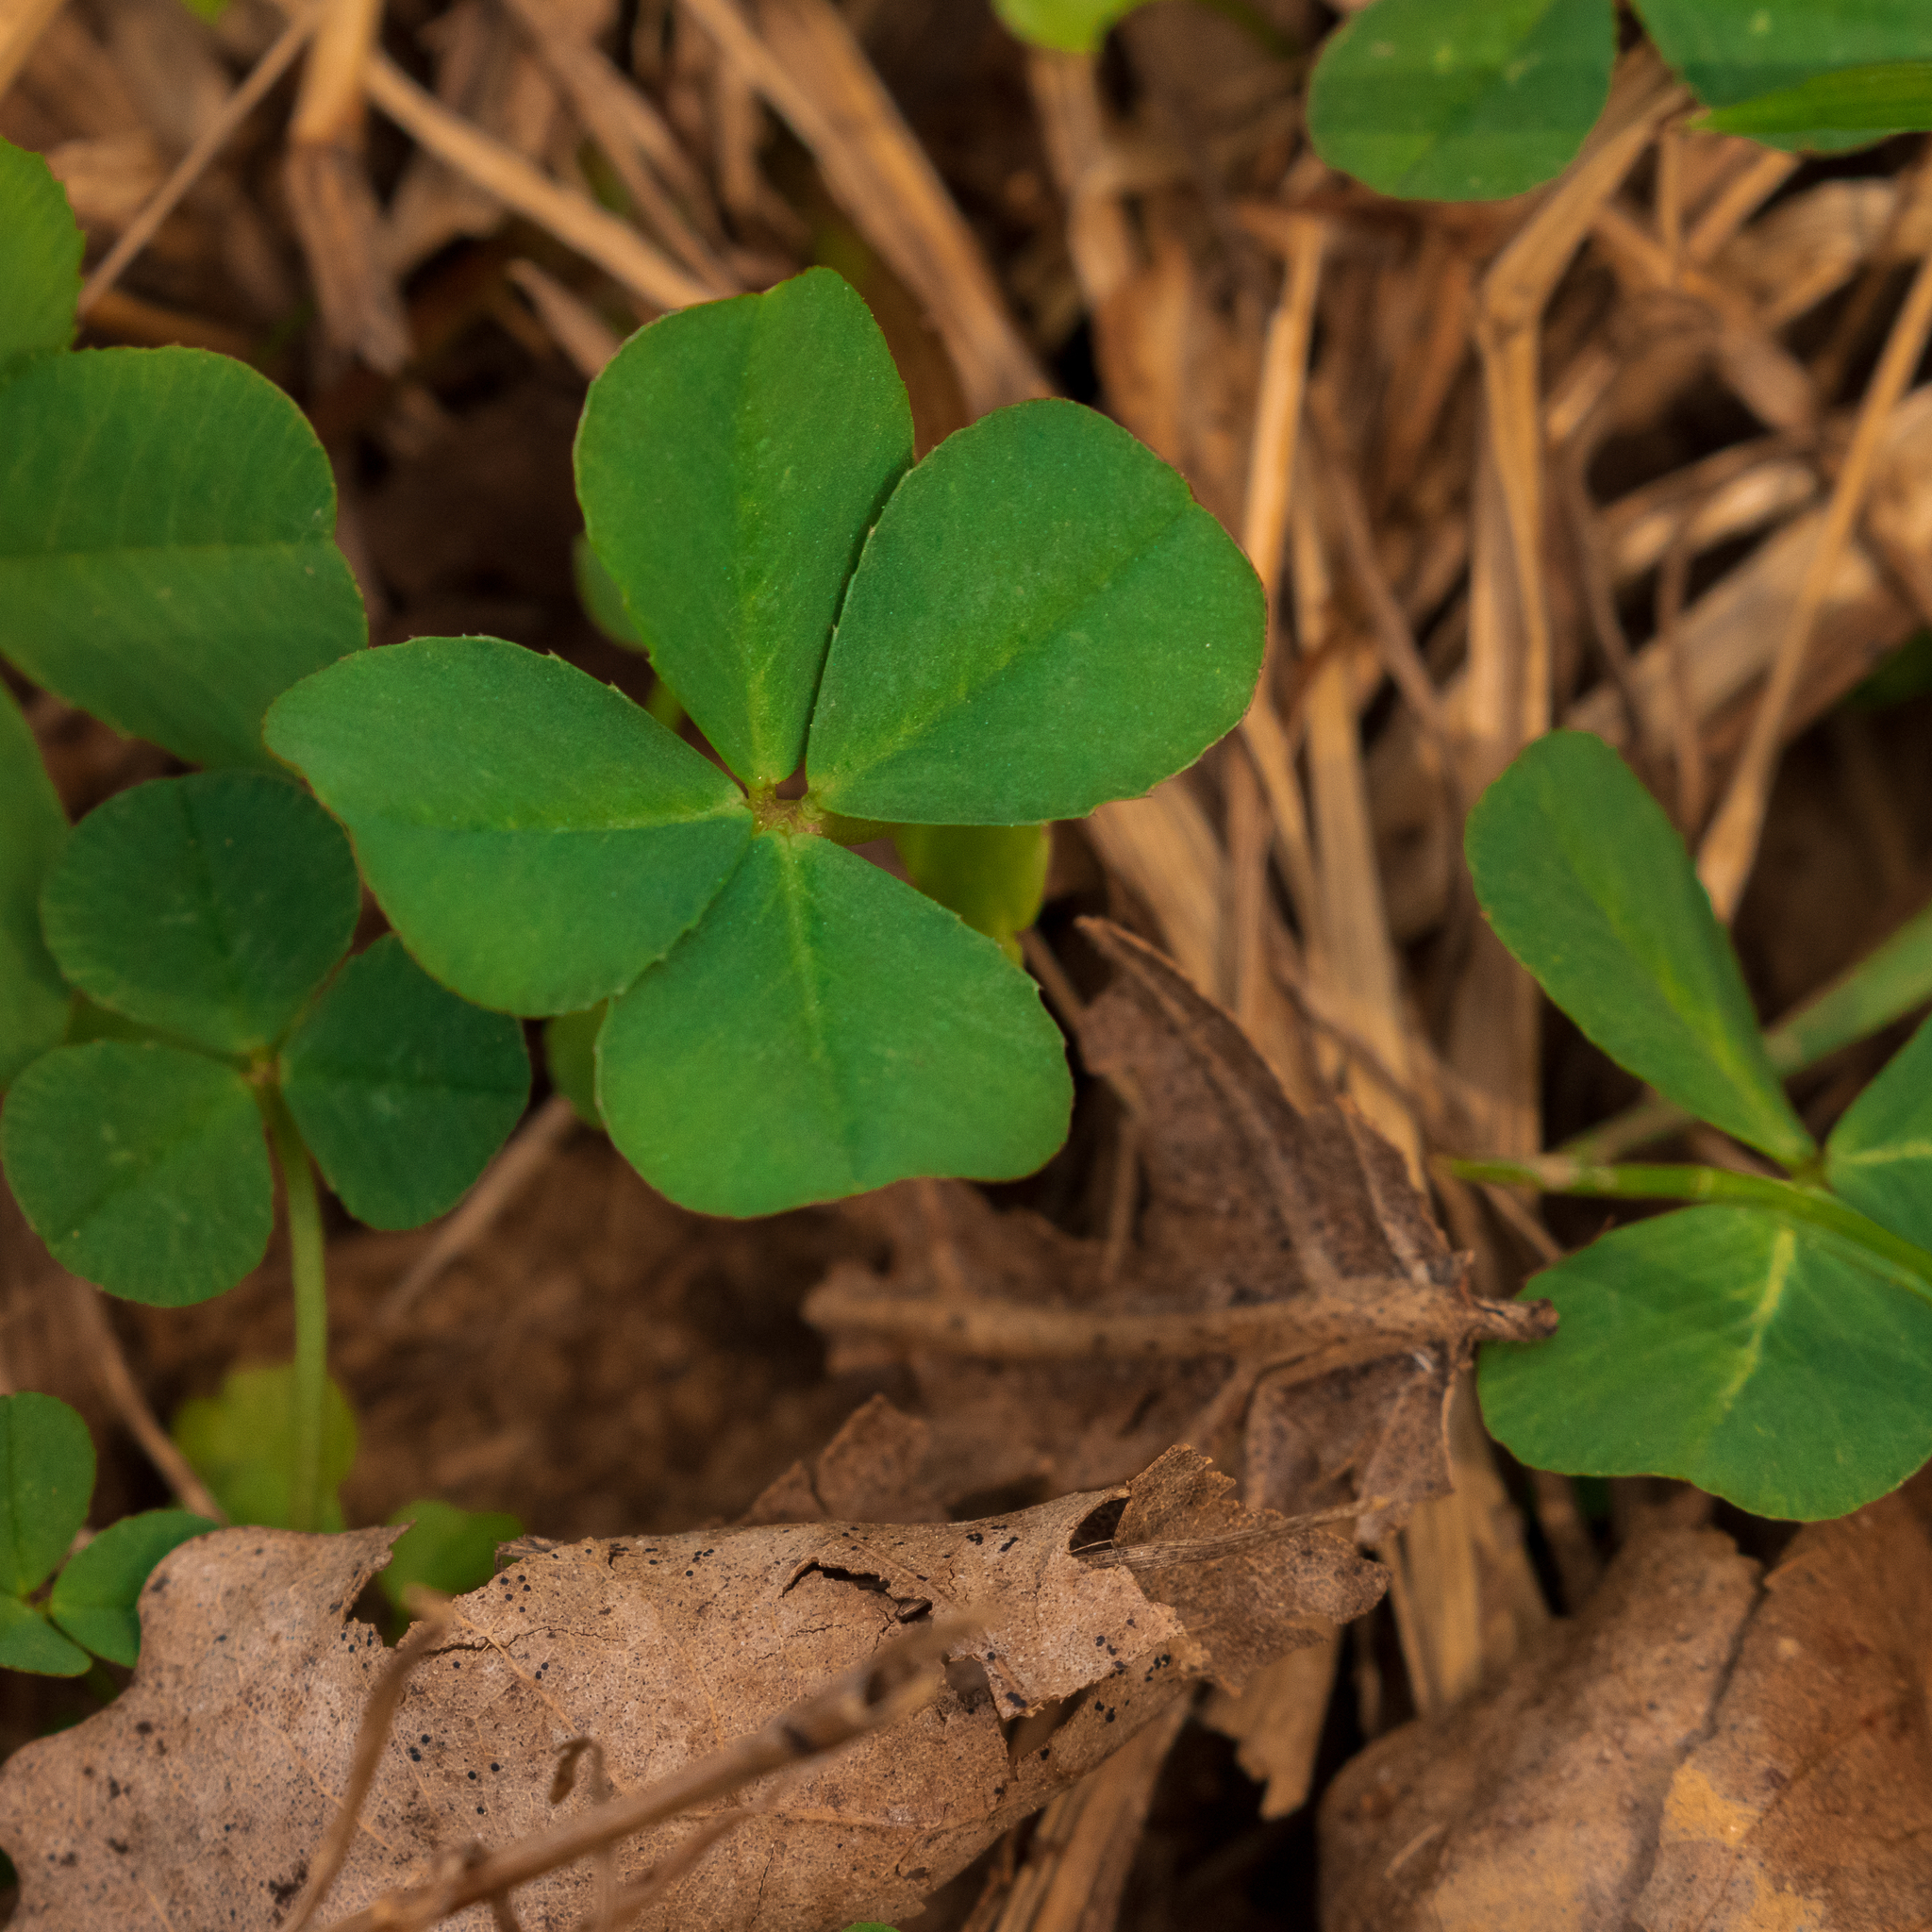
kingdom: Plantae
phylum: Tracheophyta
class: Magnoliopsida
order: Fabales
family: Fabaceae
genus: Trifolium
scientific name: Trifolium repens
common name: White clover
